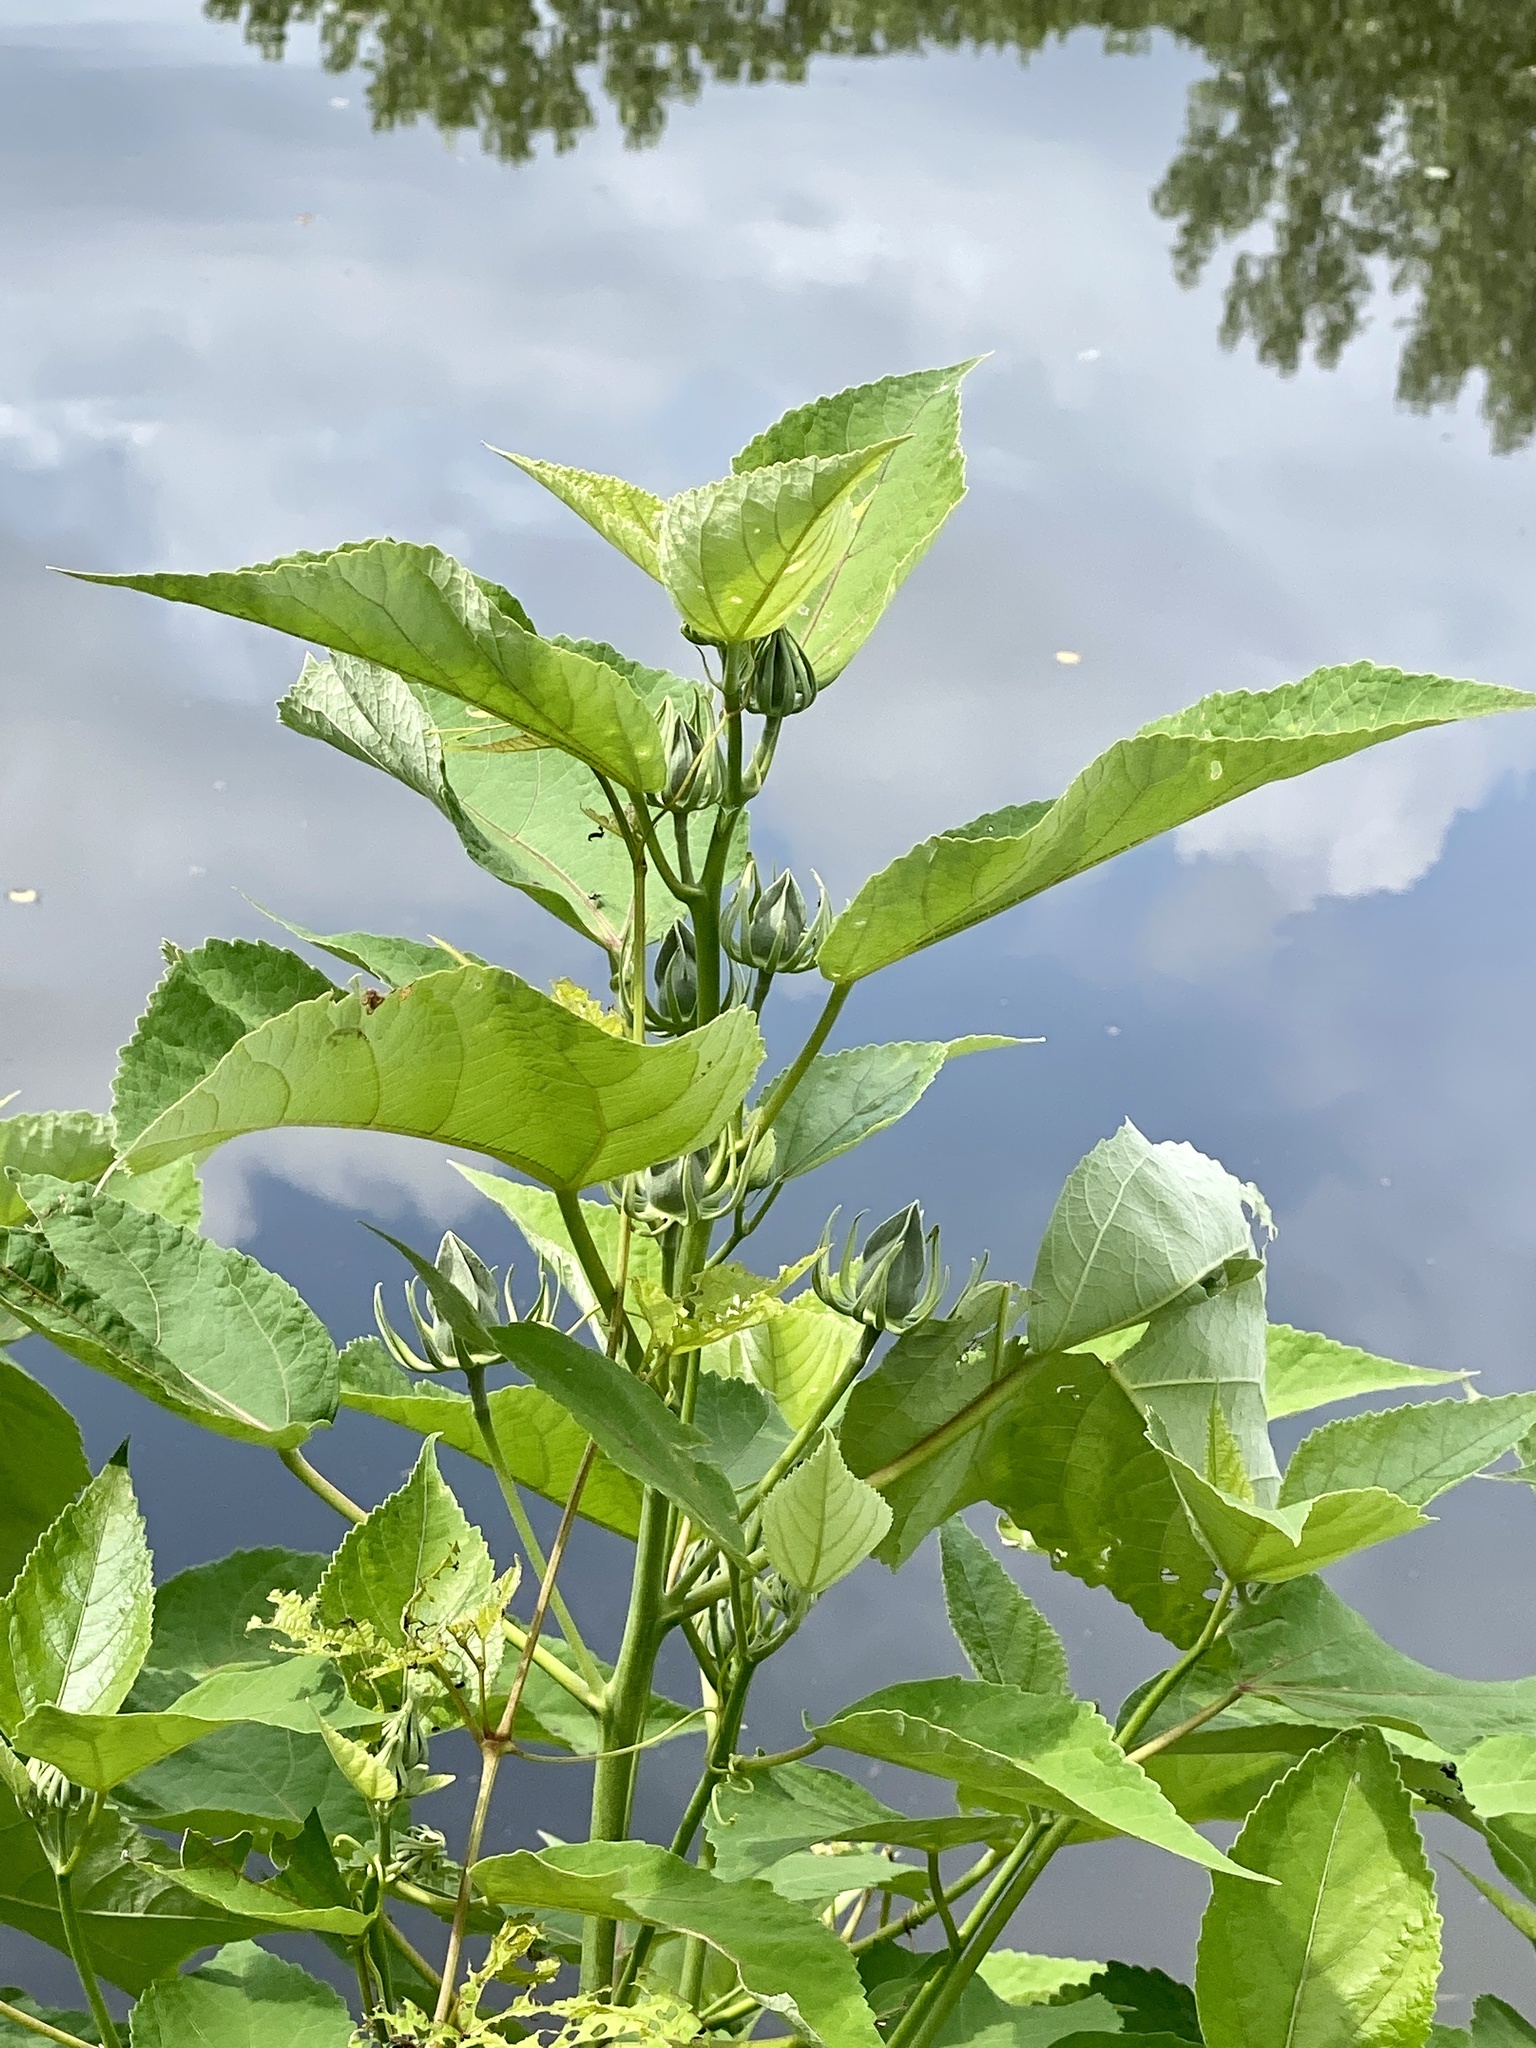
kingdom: Plantae
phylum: Tracheophyta
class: Magnoliopsida
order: Malvales
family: Malvaceae
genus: Hibiscus
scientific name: Hibiscus moscheutos
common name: Common rose-mallow
